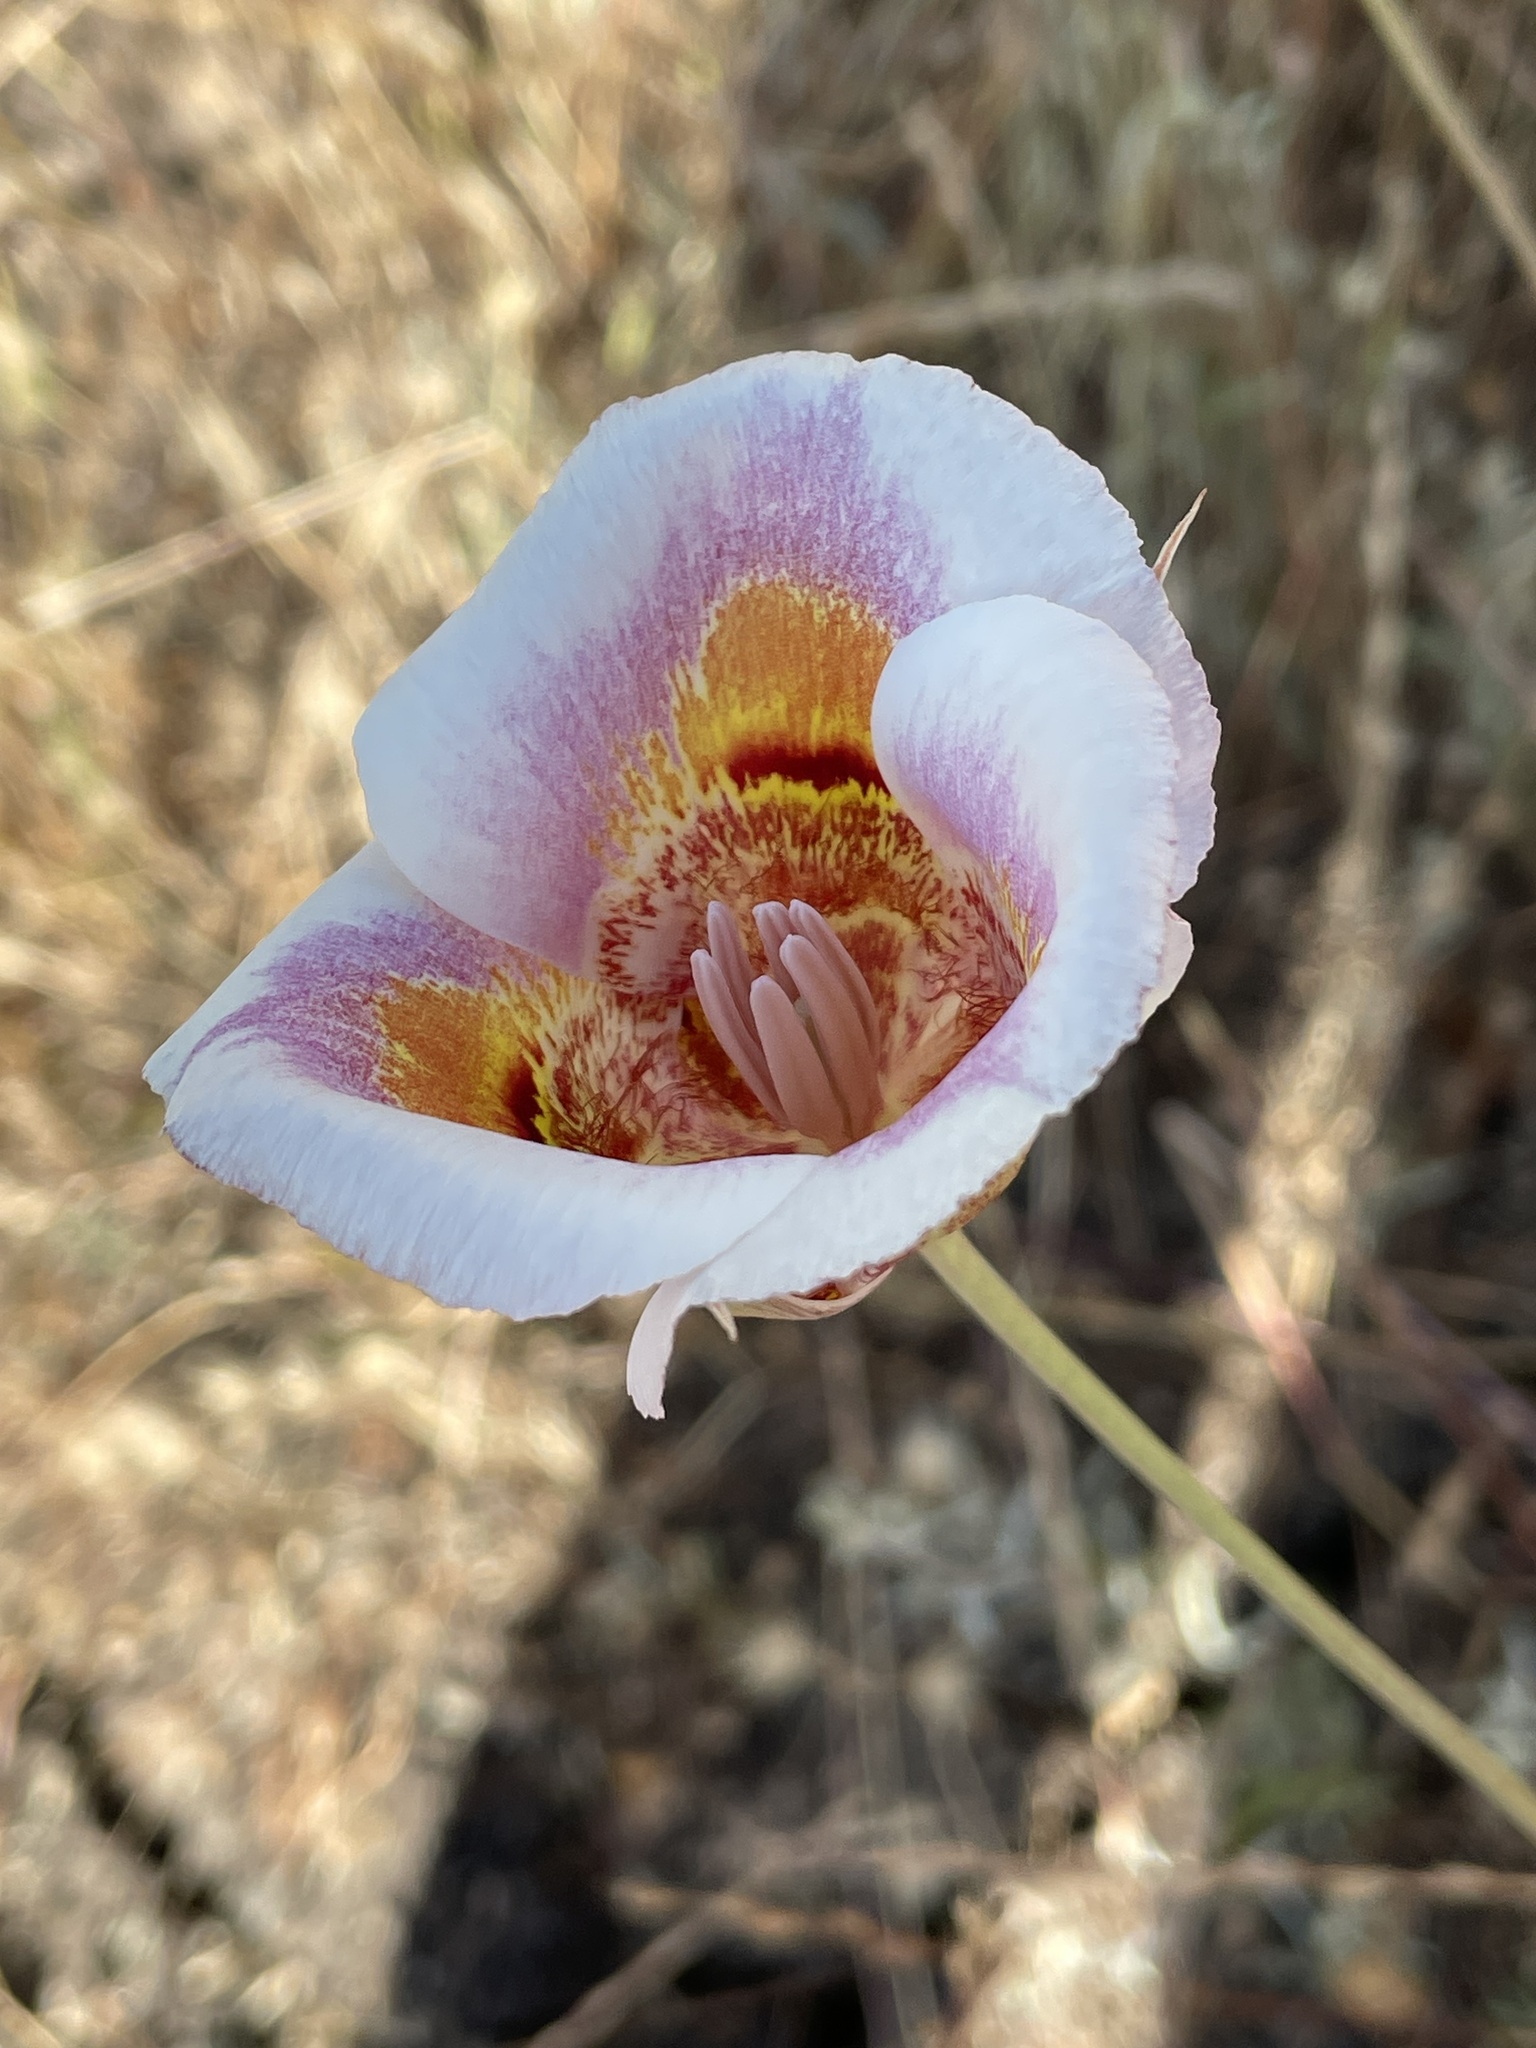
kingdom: Plantae
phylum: Tracheophyta
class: Liliopsida
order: Liliales
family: Liliaceae
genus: Calochortus
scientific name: Calochortus argillosus
